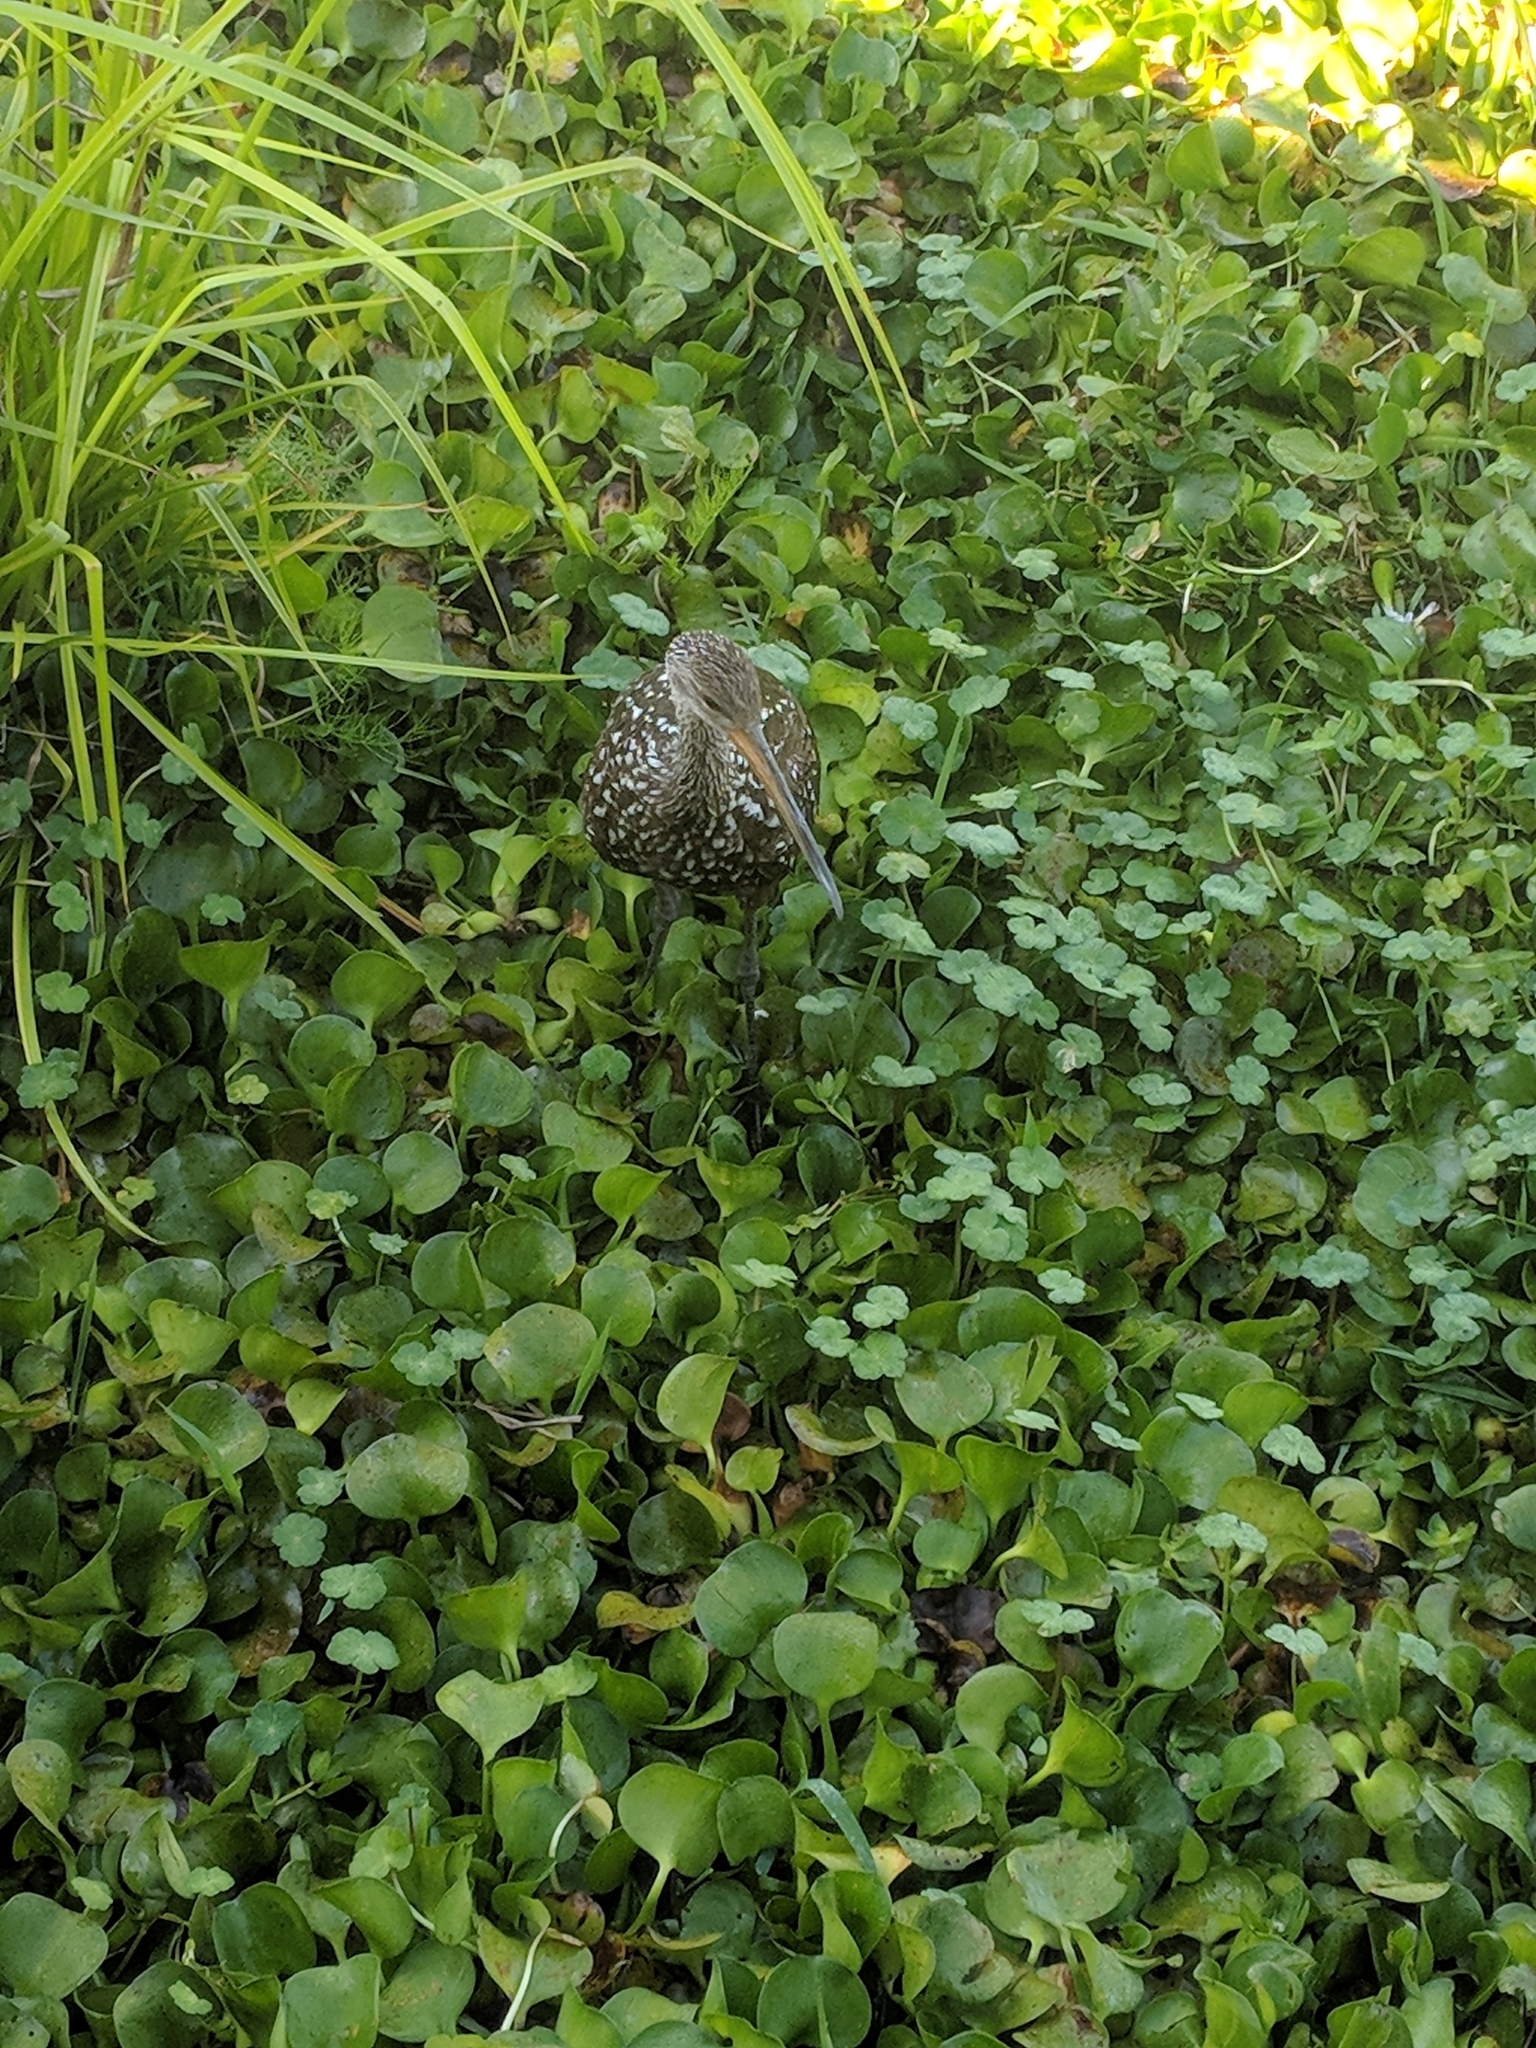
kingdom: Animalia
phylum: Chordata
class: Aves
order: Gruiformes
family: Aramidae
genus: Aramus
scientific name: Aramus guarauna
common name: Limpkin
